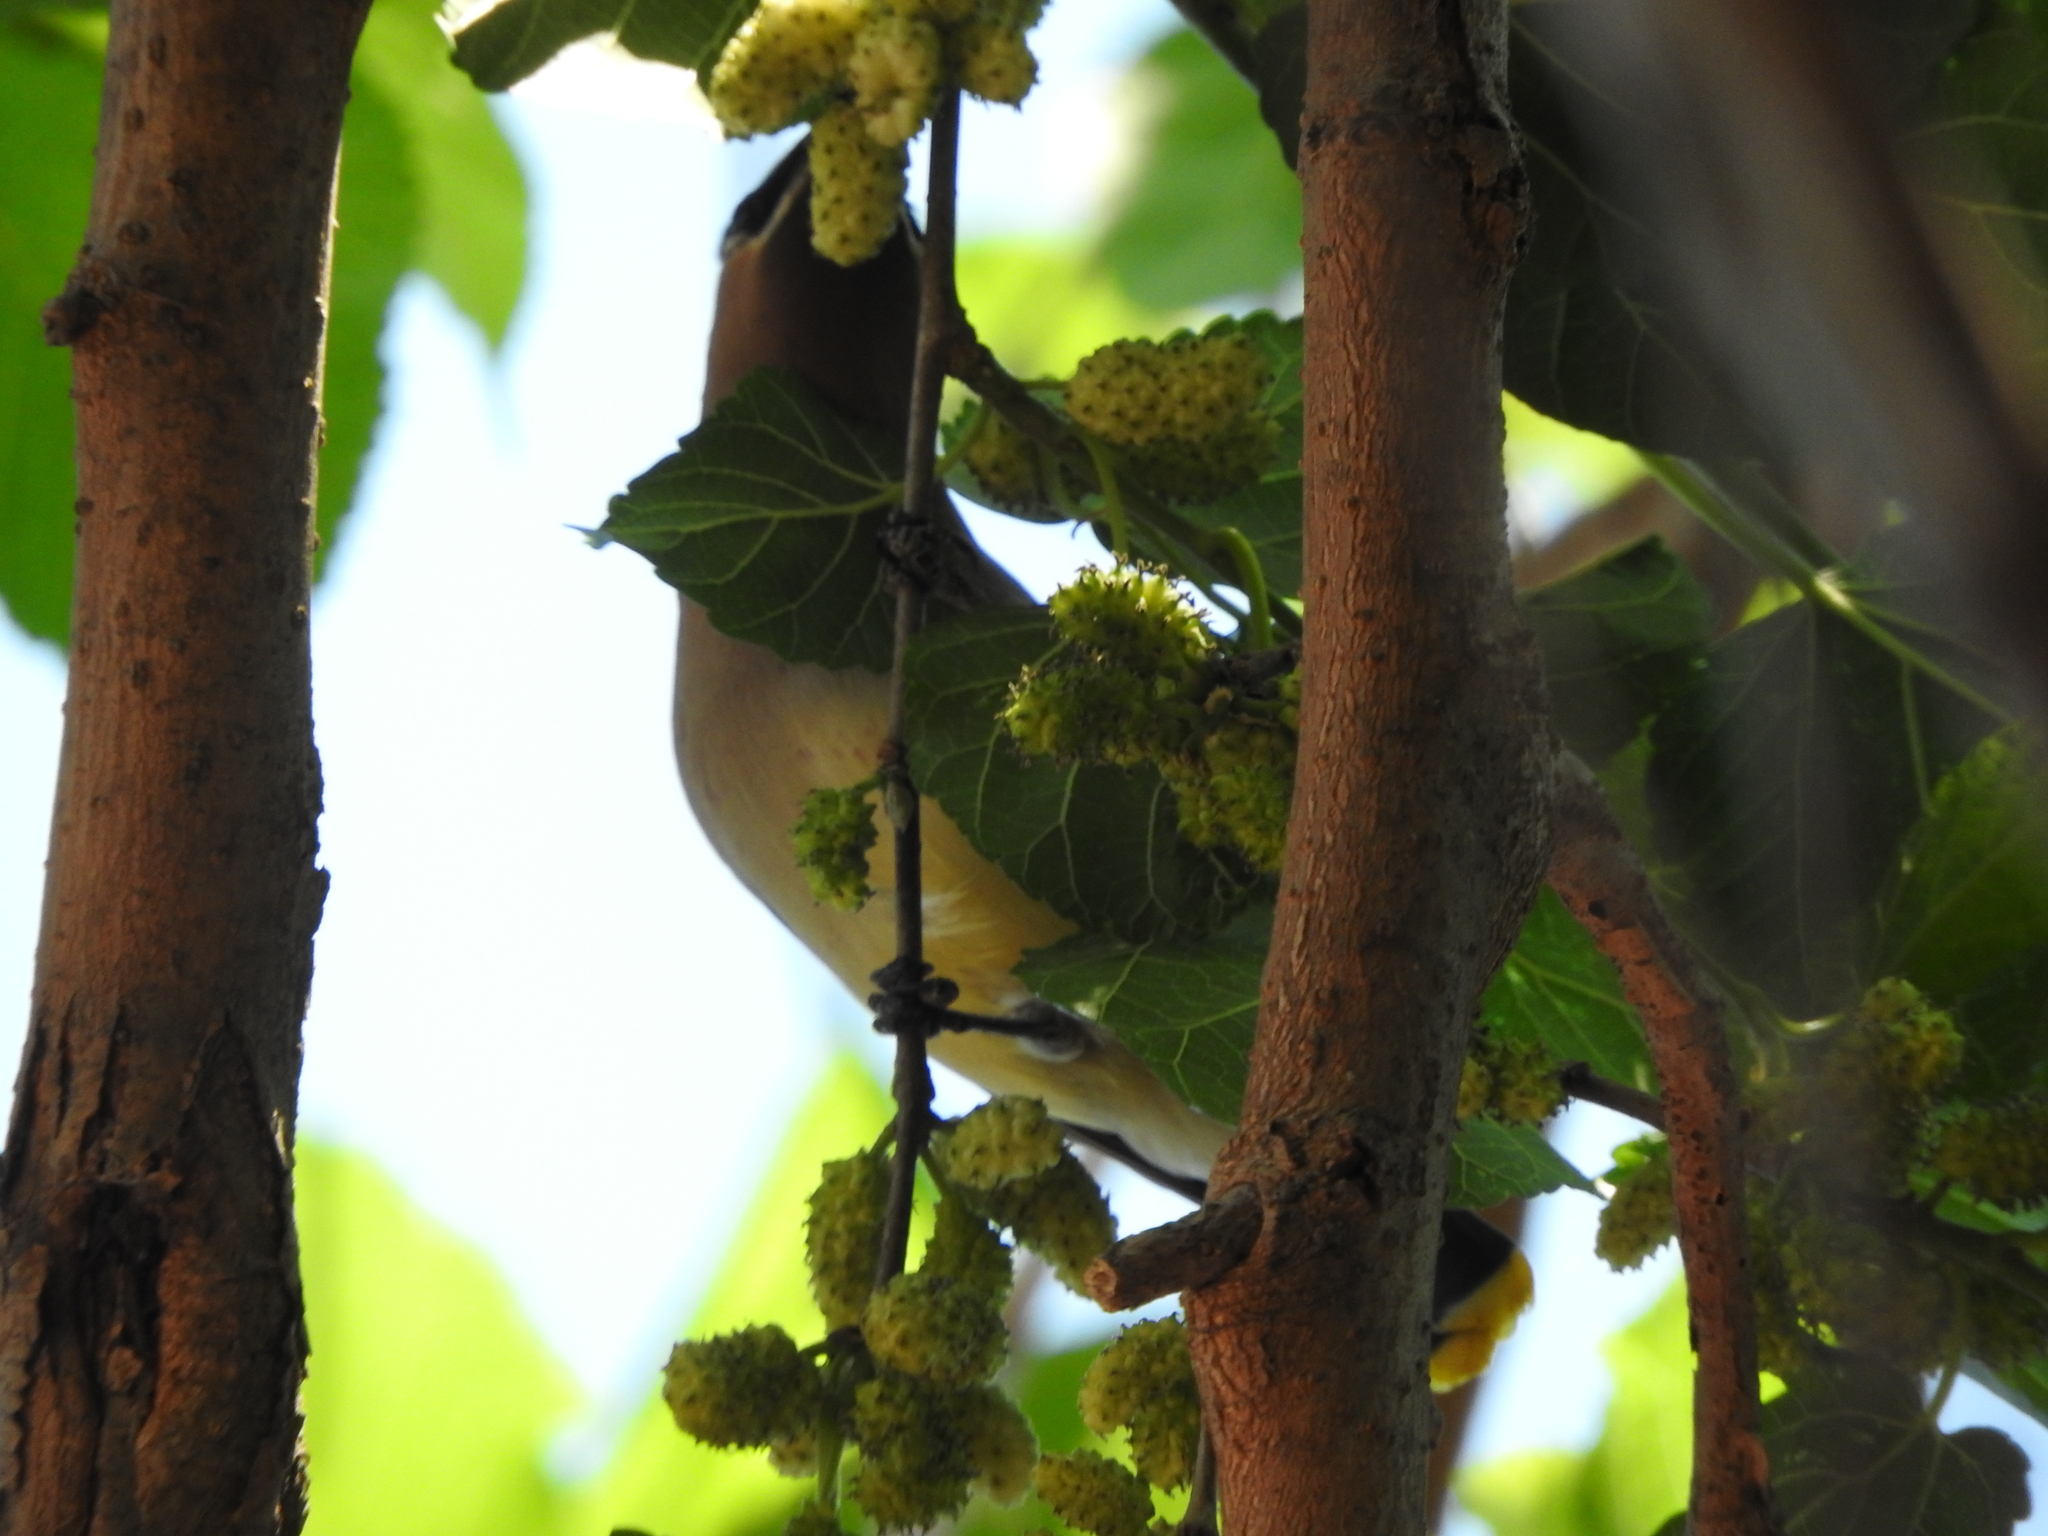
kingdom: Animalia
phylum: Chordata
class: Aves
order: Passeriformes
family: Bombycillidae
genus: Bombycilla
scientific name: Bombycilla cedrorum
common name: Cedar waxwing
